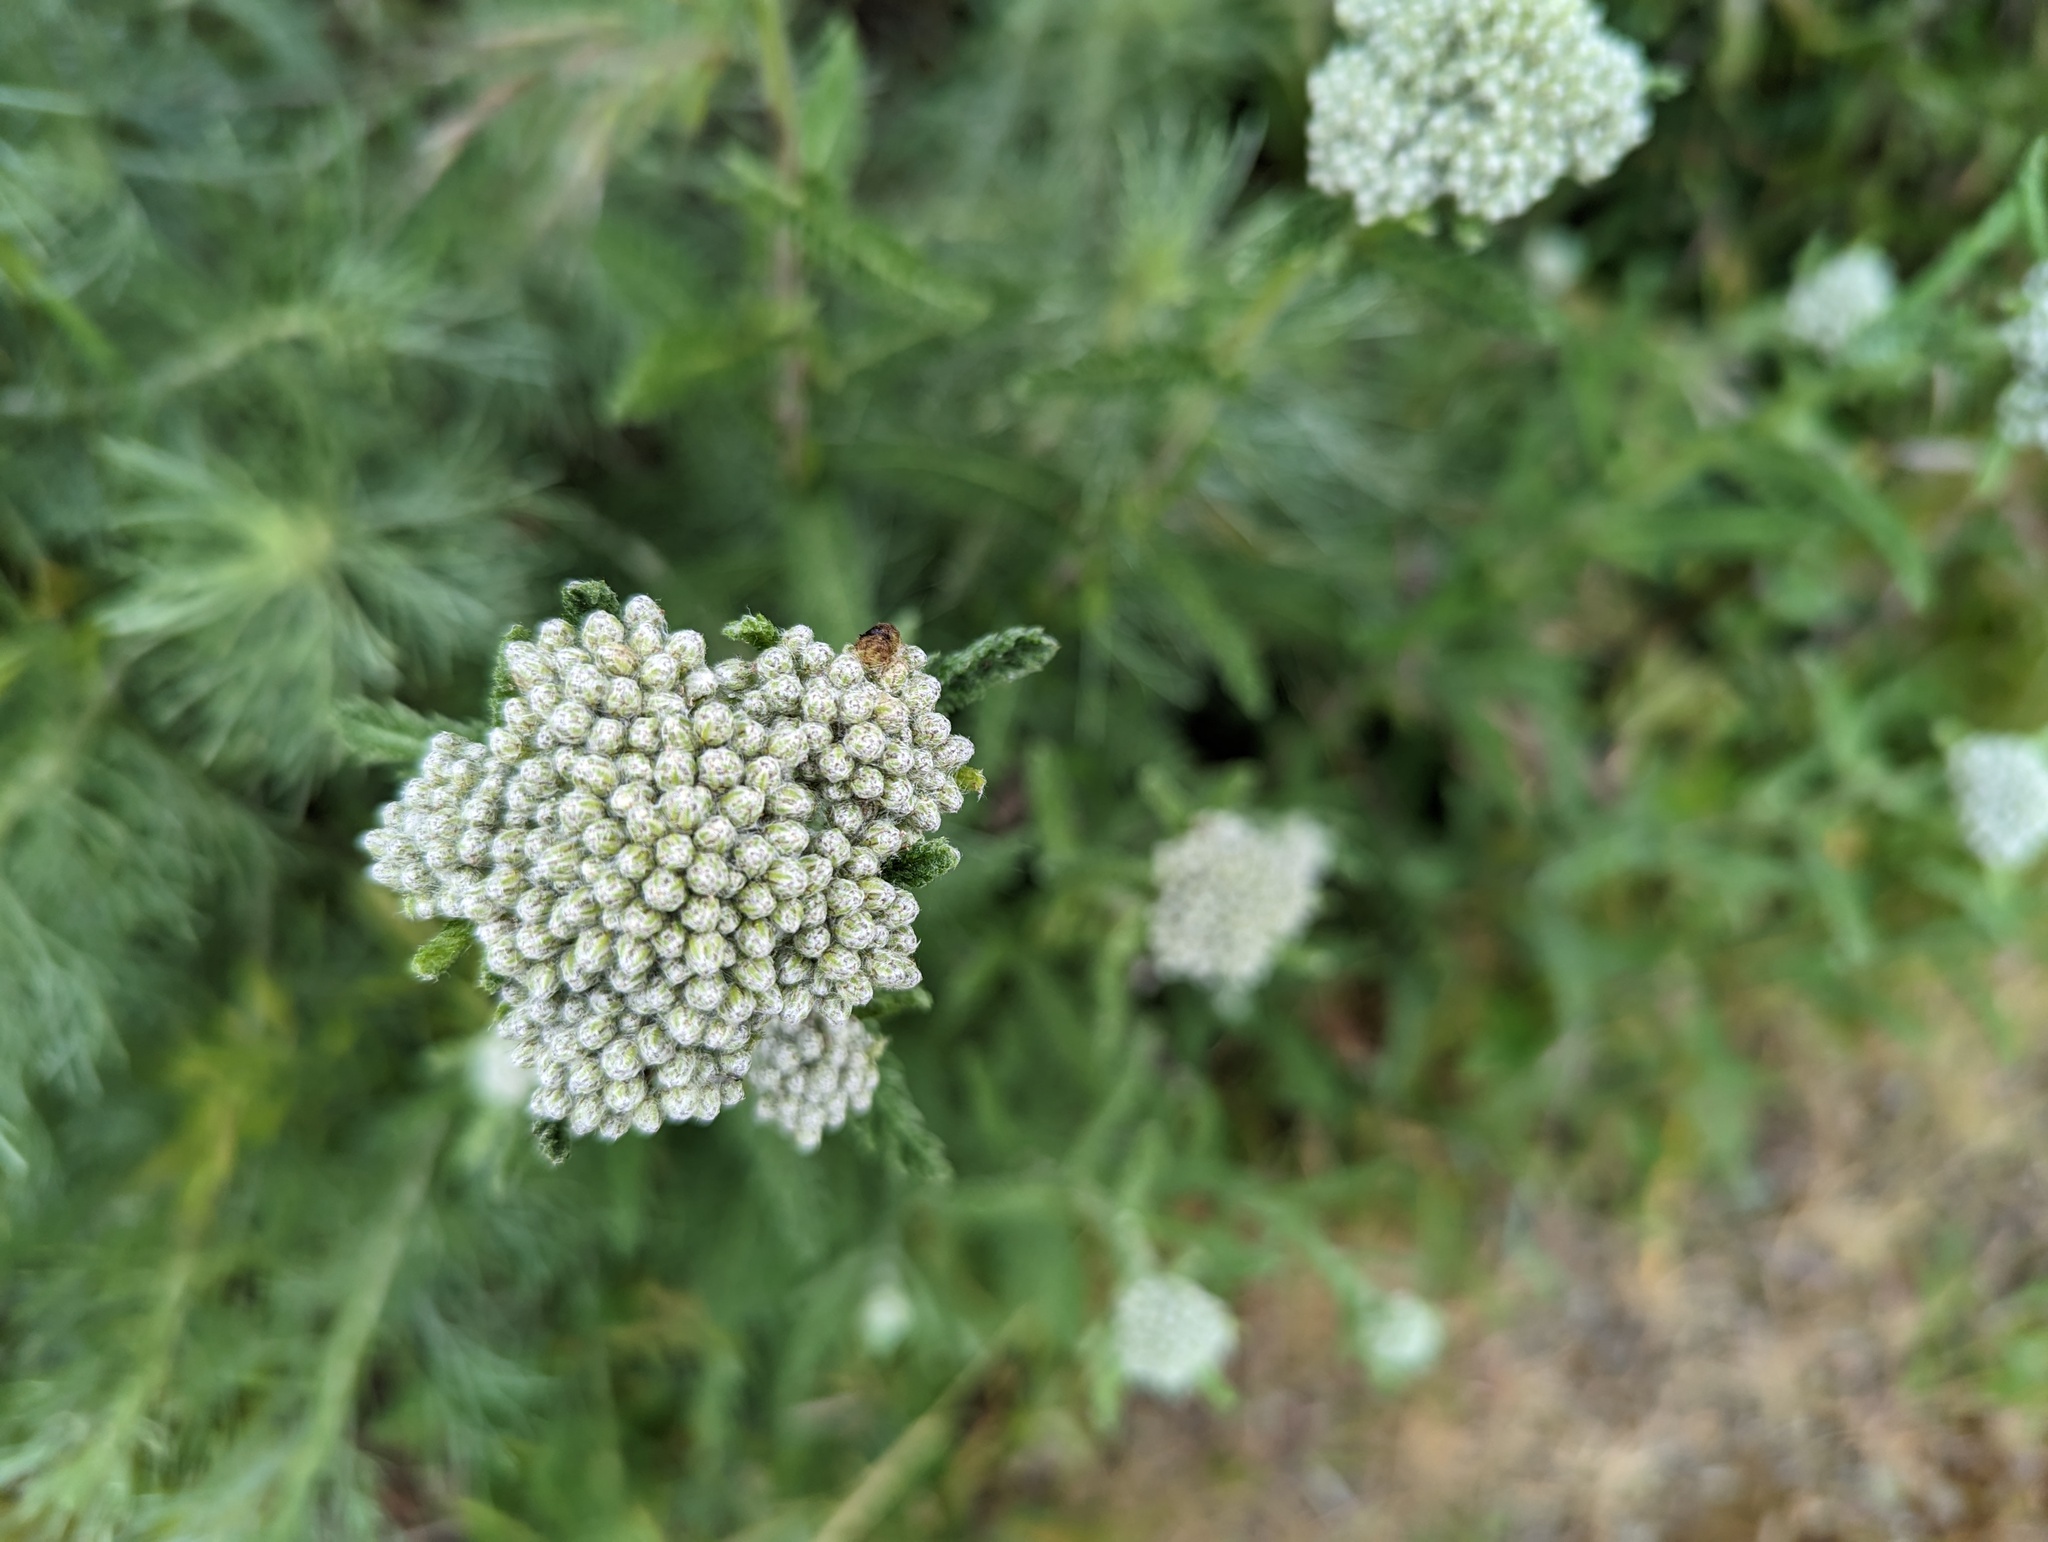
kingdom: Plantae
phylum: Tracheophyta
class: Magnoliopsida
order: Asterales
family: Asteraceae
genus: Achillea
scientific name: Achillea millefolium
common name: Yarrow
